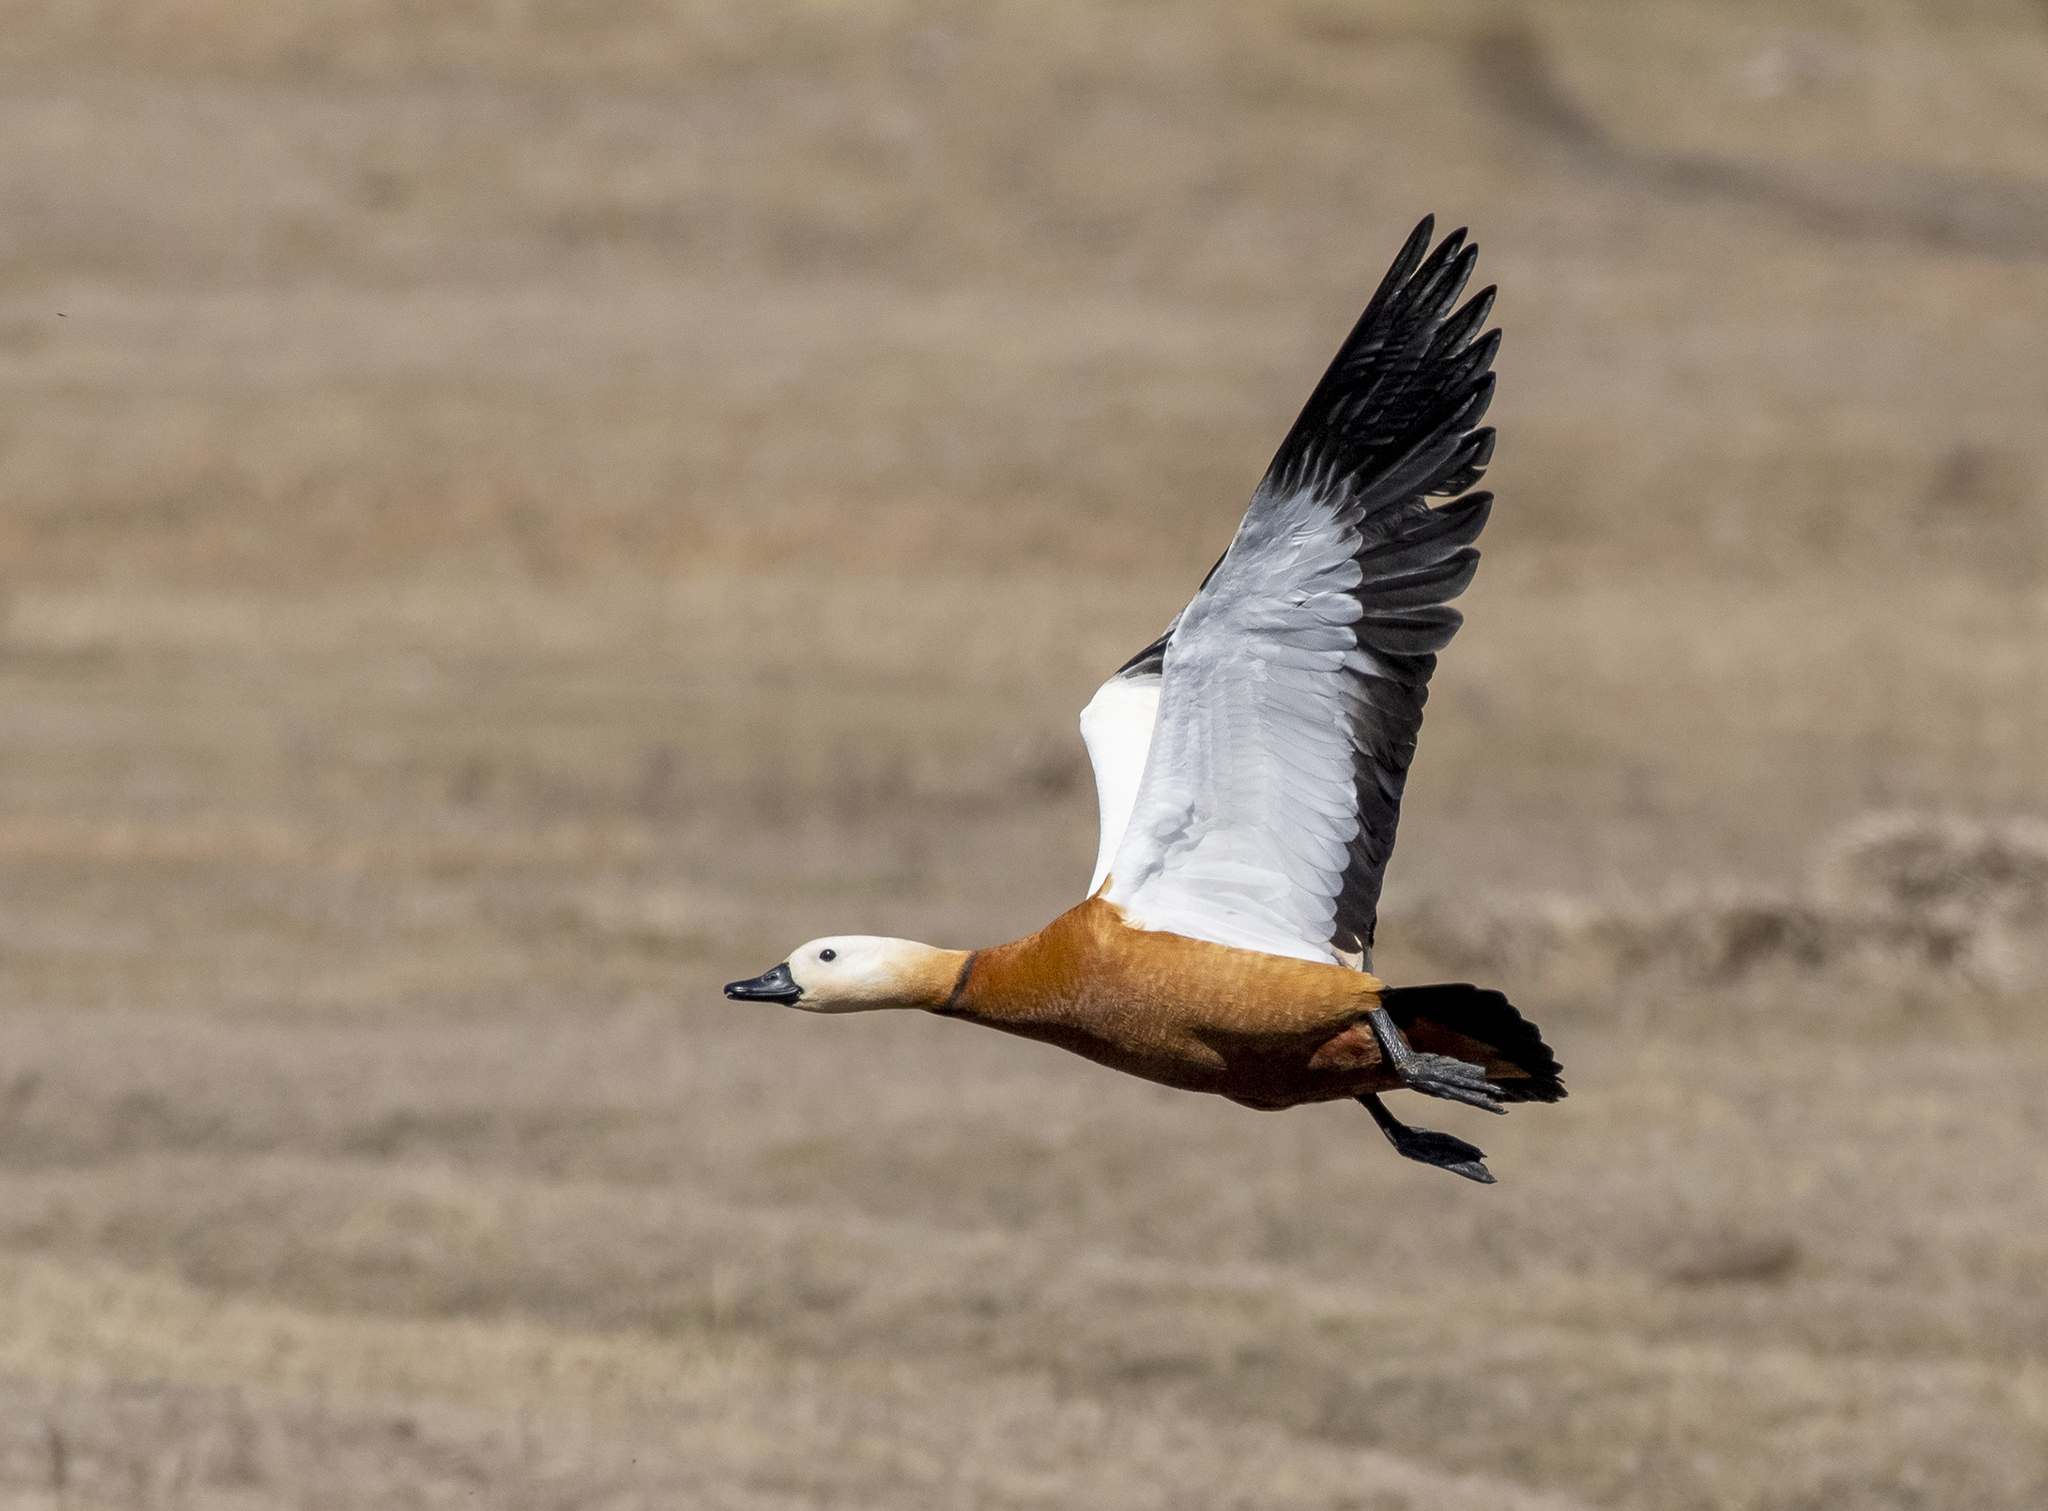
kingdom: Animalia
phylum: Chordata
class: Aves
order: Anseriformes
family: Anatidae
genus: Tadorna
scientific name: Tadorna ferruginea
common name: Ruddy shelduck
